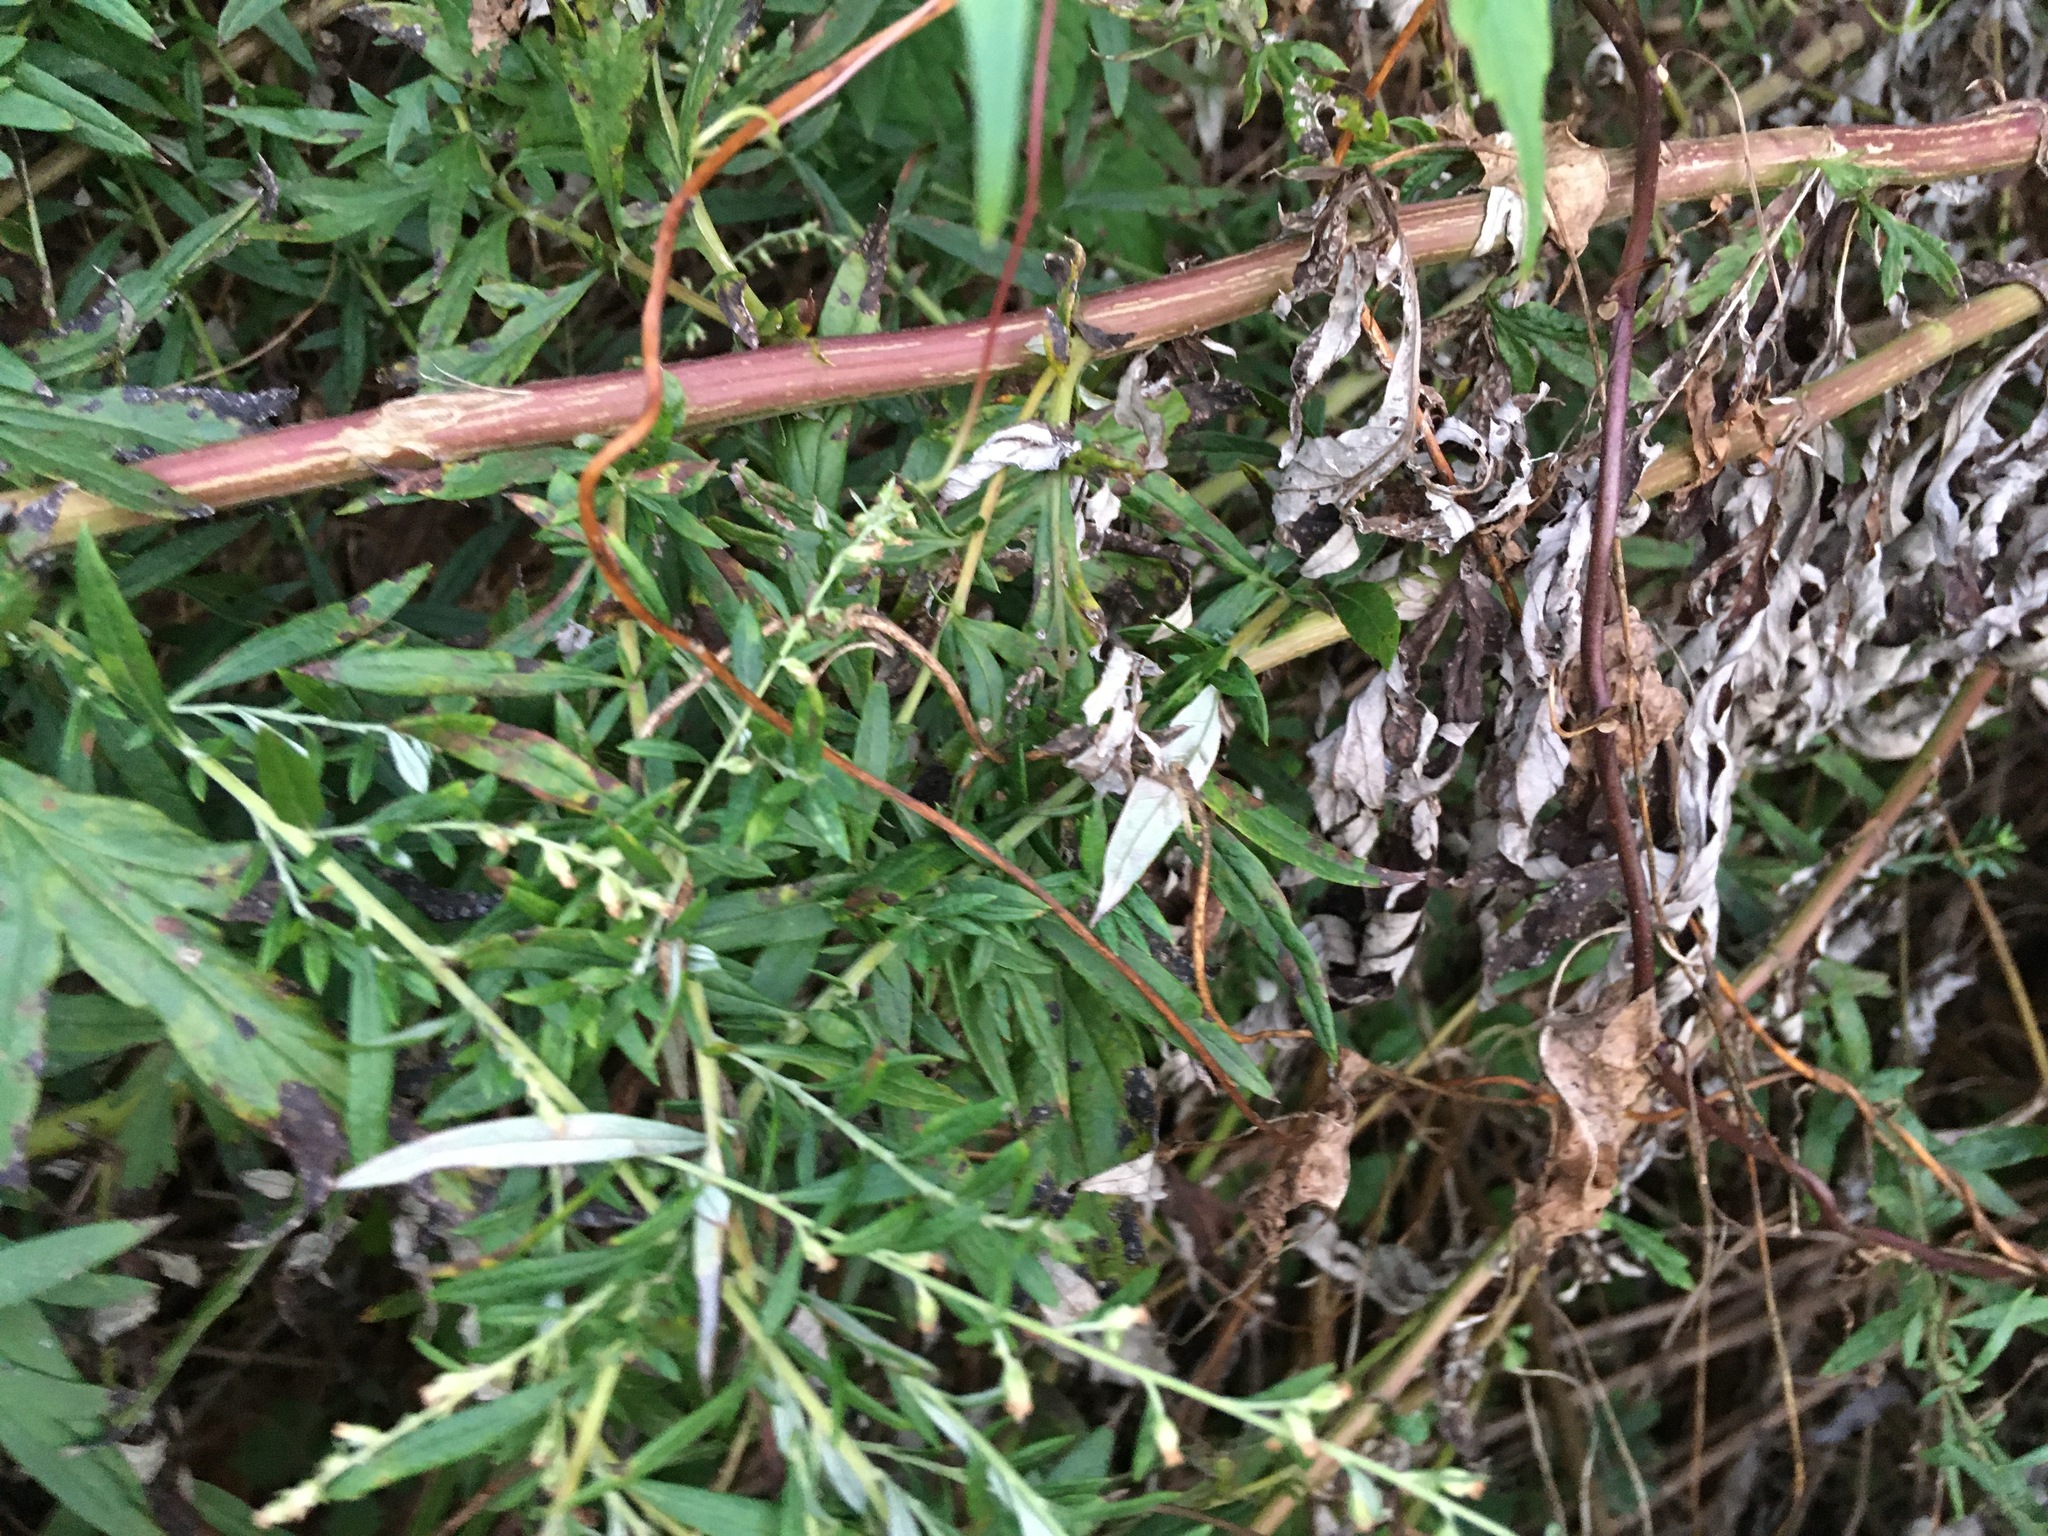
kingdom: Plantae
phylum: Tracheophyta
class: Magnoliopsida
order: Asterales
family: Asteraceae
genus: Artemisia
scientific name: Artemisia vulgaris
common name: Mugwort
